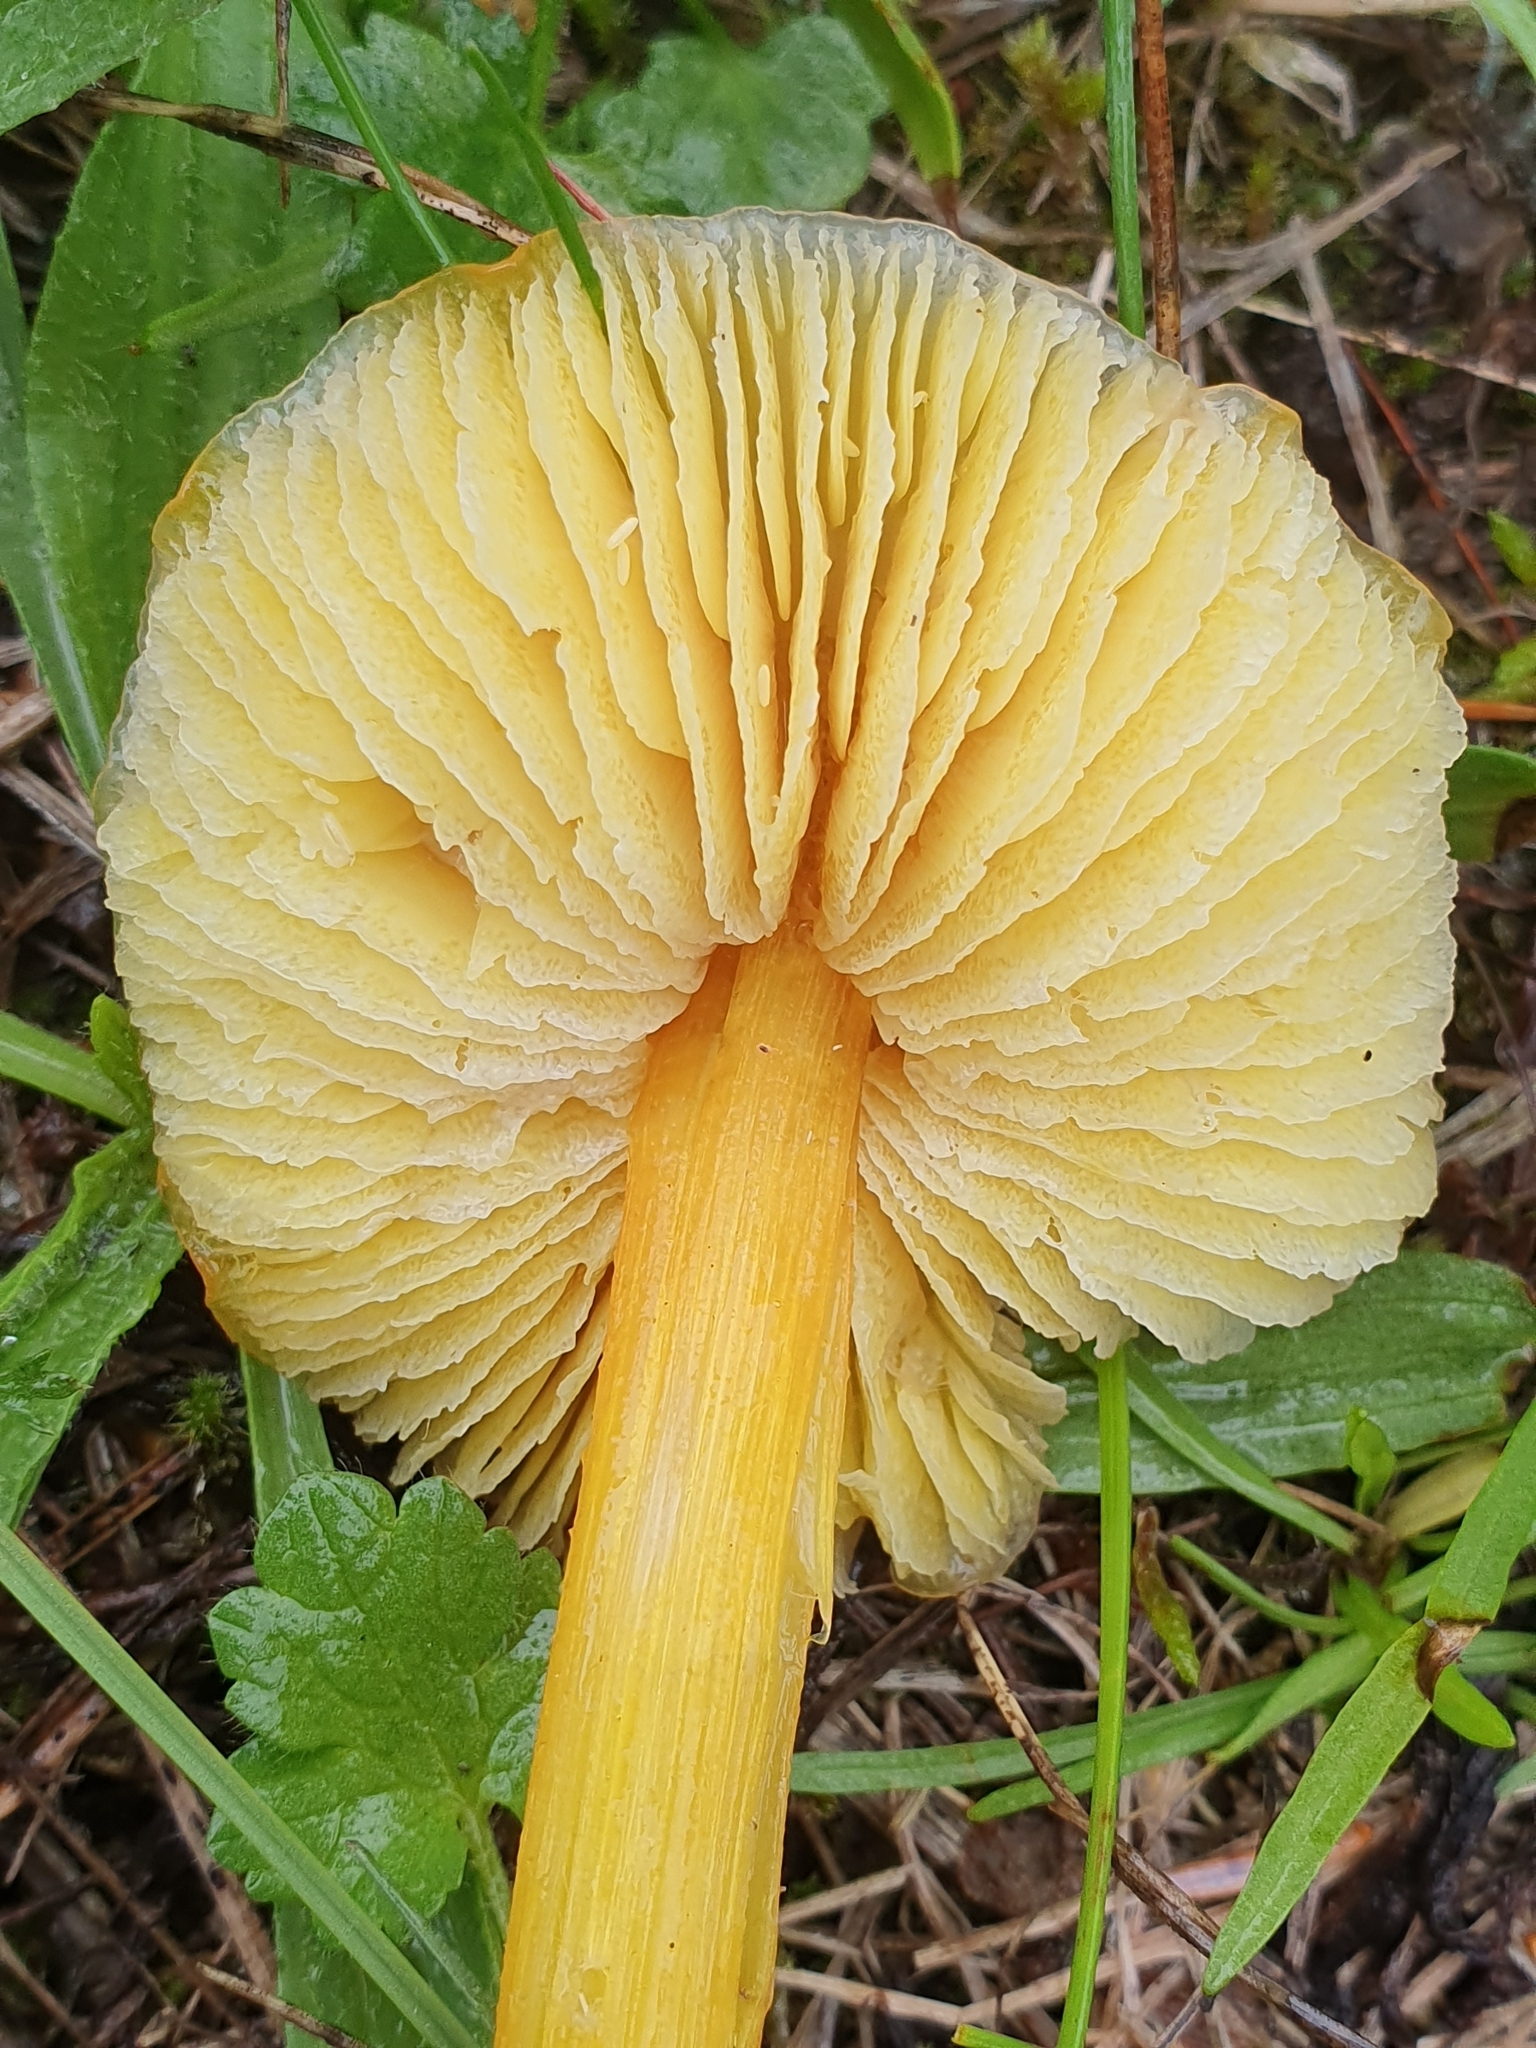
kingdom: Fungi
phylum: Basidiomycota
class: Agaricomycetes
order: Agaricales
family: Hygrophoraceae
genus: Hygrocybe
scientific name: Hygrocybe acutoconica
